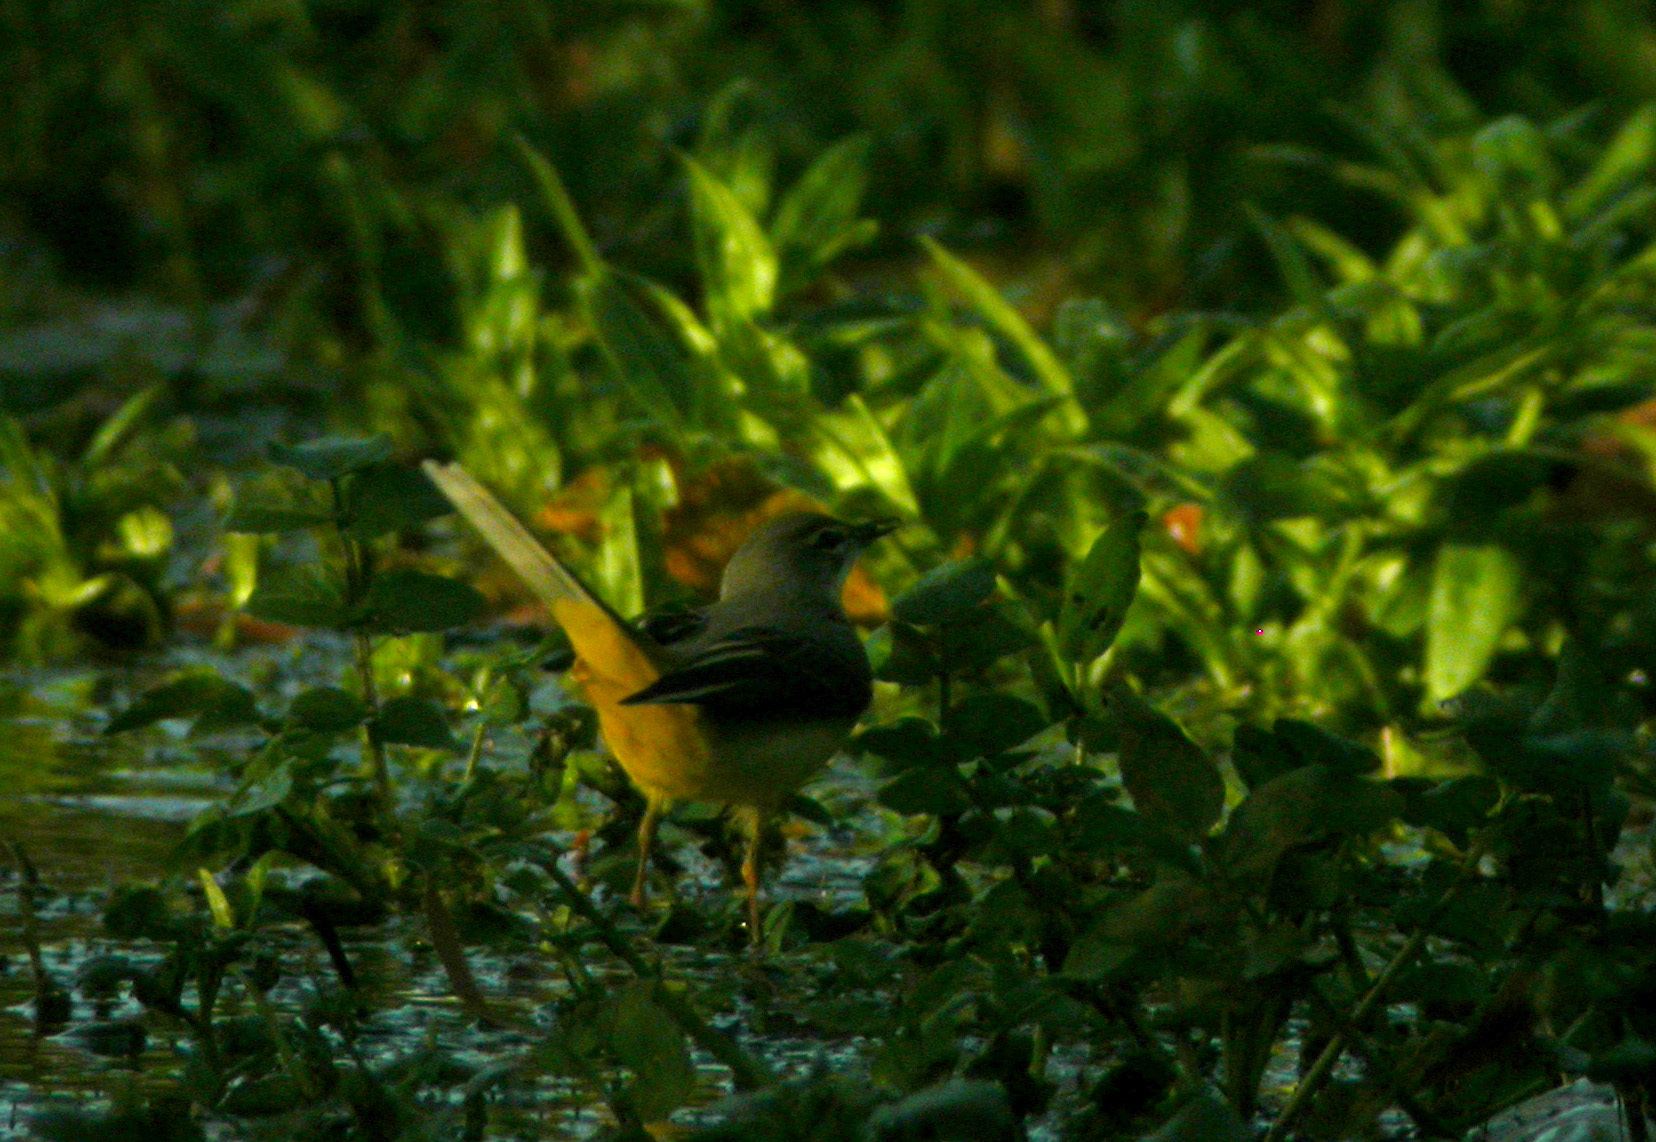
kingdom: Animalia
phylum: Chordata
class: Aves
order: Passeriformes
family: Motacillidae
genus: Motacilla
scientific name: Motacilla cinerea
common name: Grey wagtail
